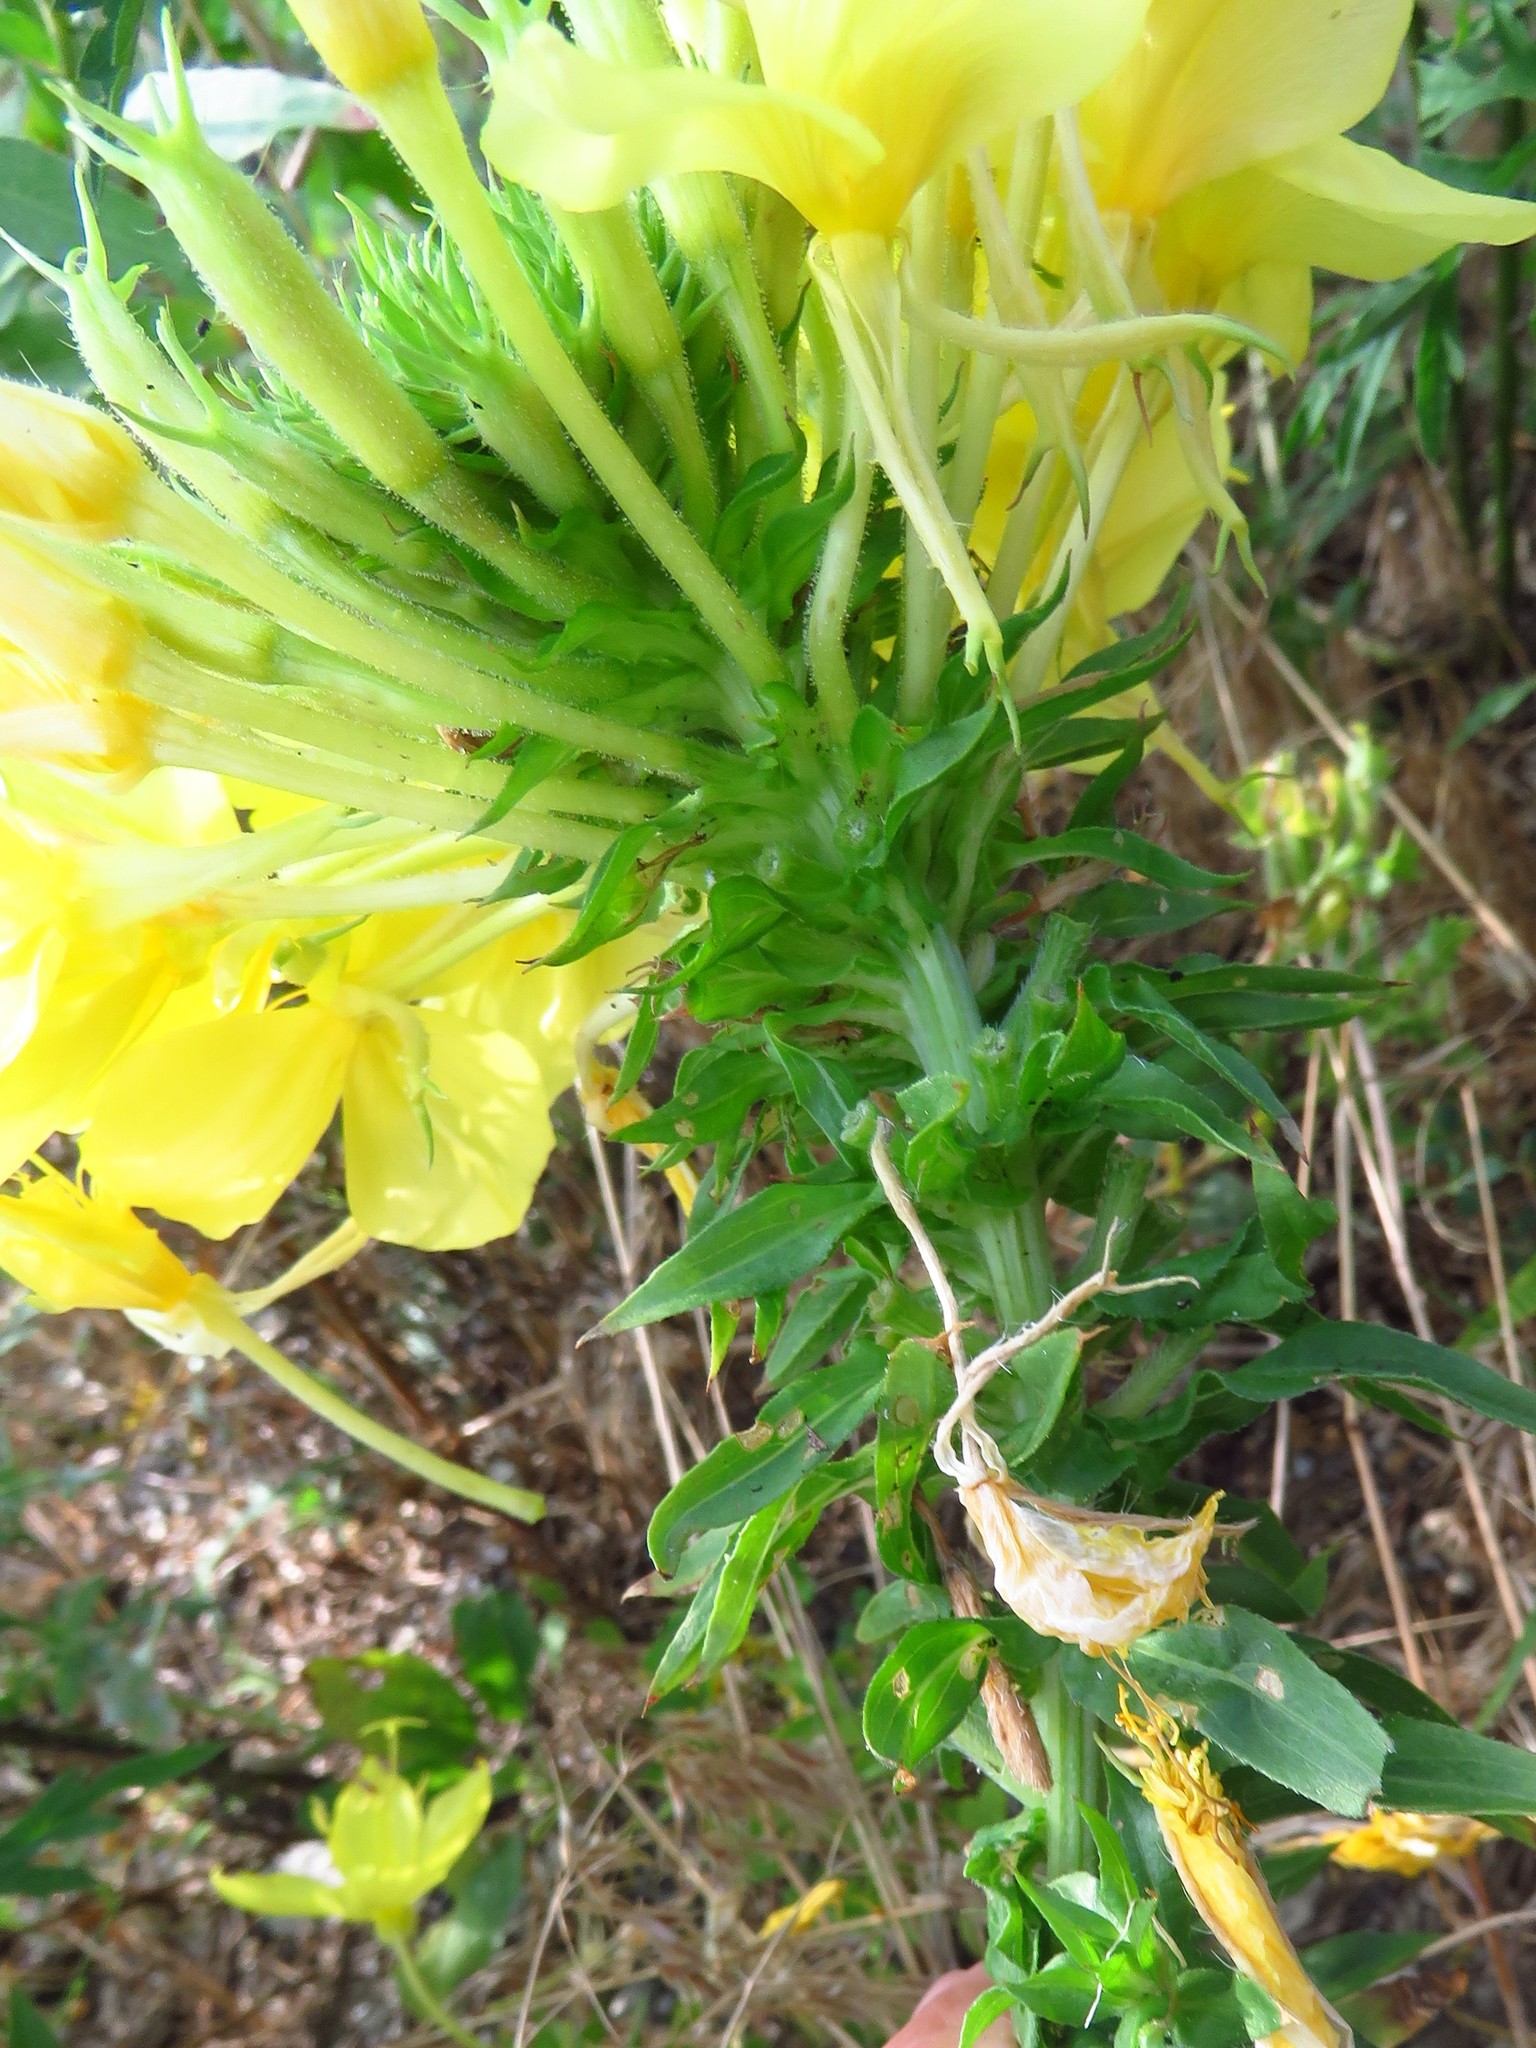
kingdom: Plantae
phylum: Tracheophyta
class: Magnoliopsida
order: Myrtales
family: Onagraceae
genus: Oenothera
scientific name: Oenothera rhombipetala
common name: Four-points evening-primrose
